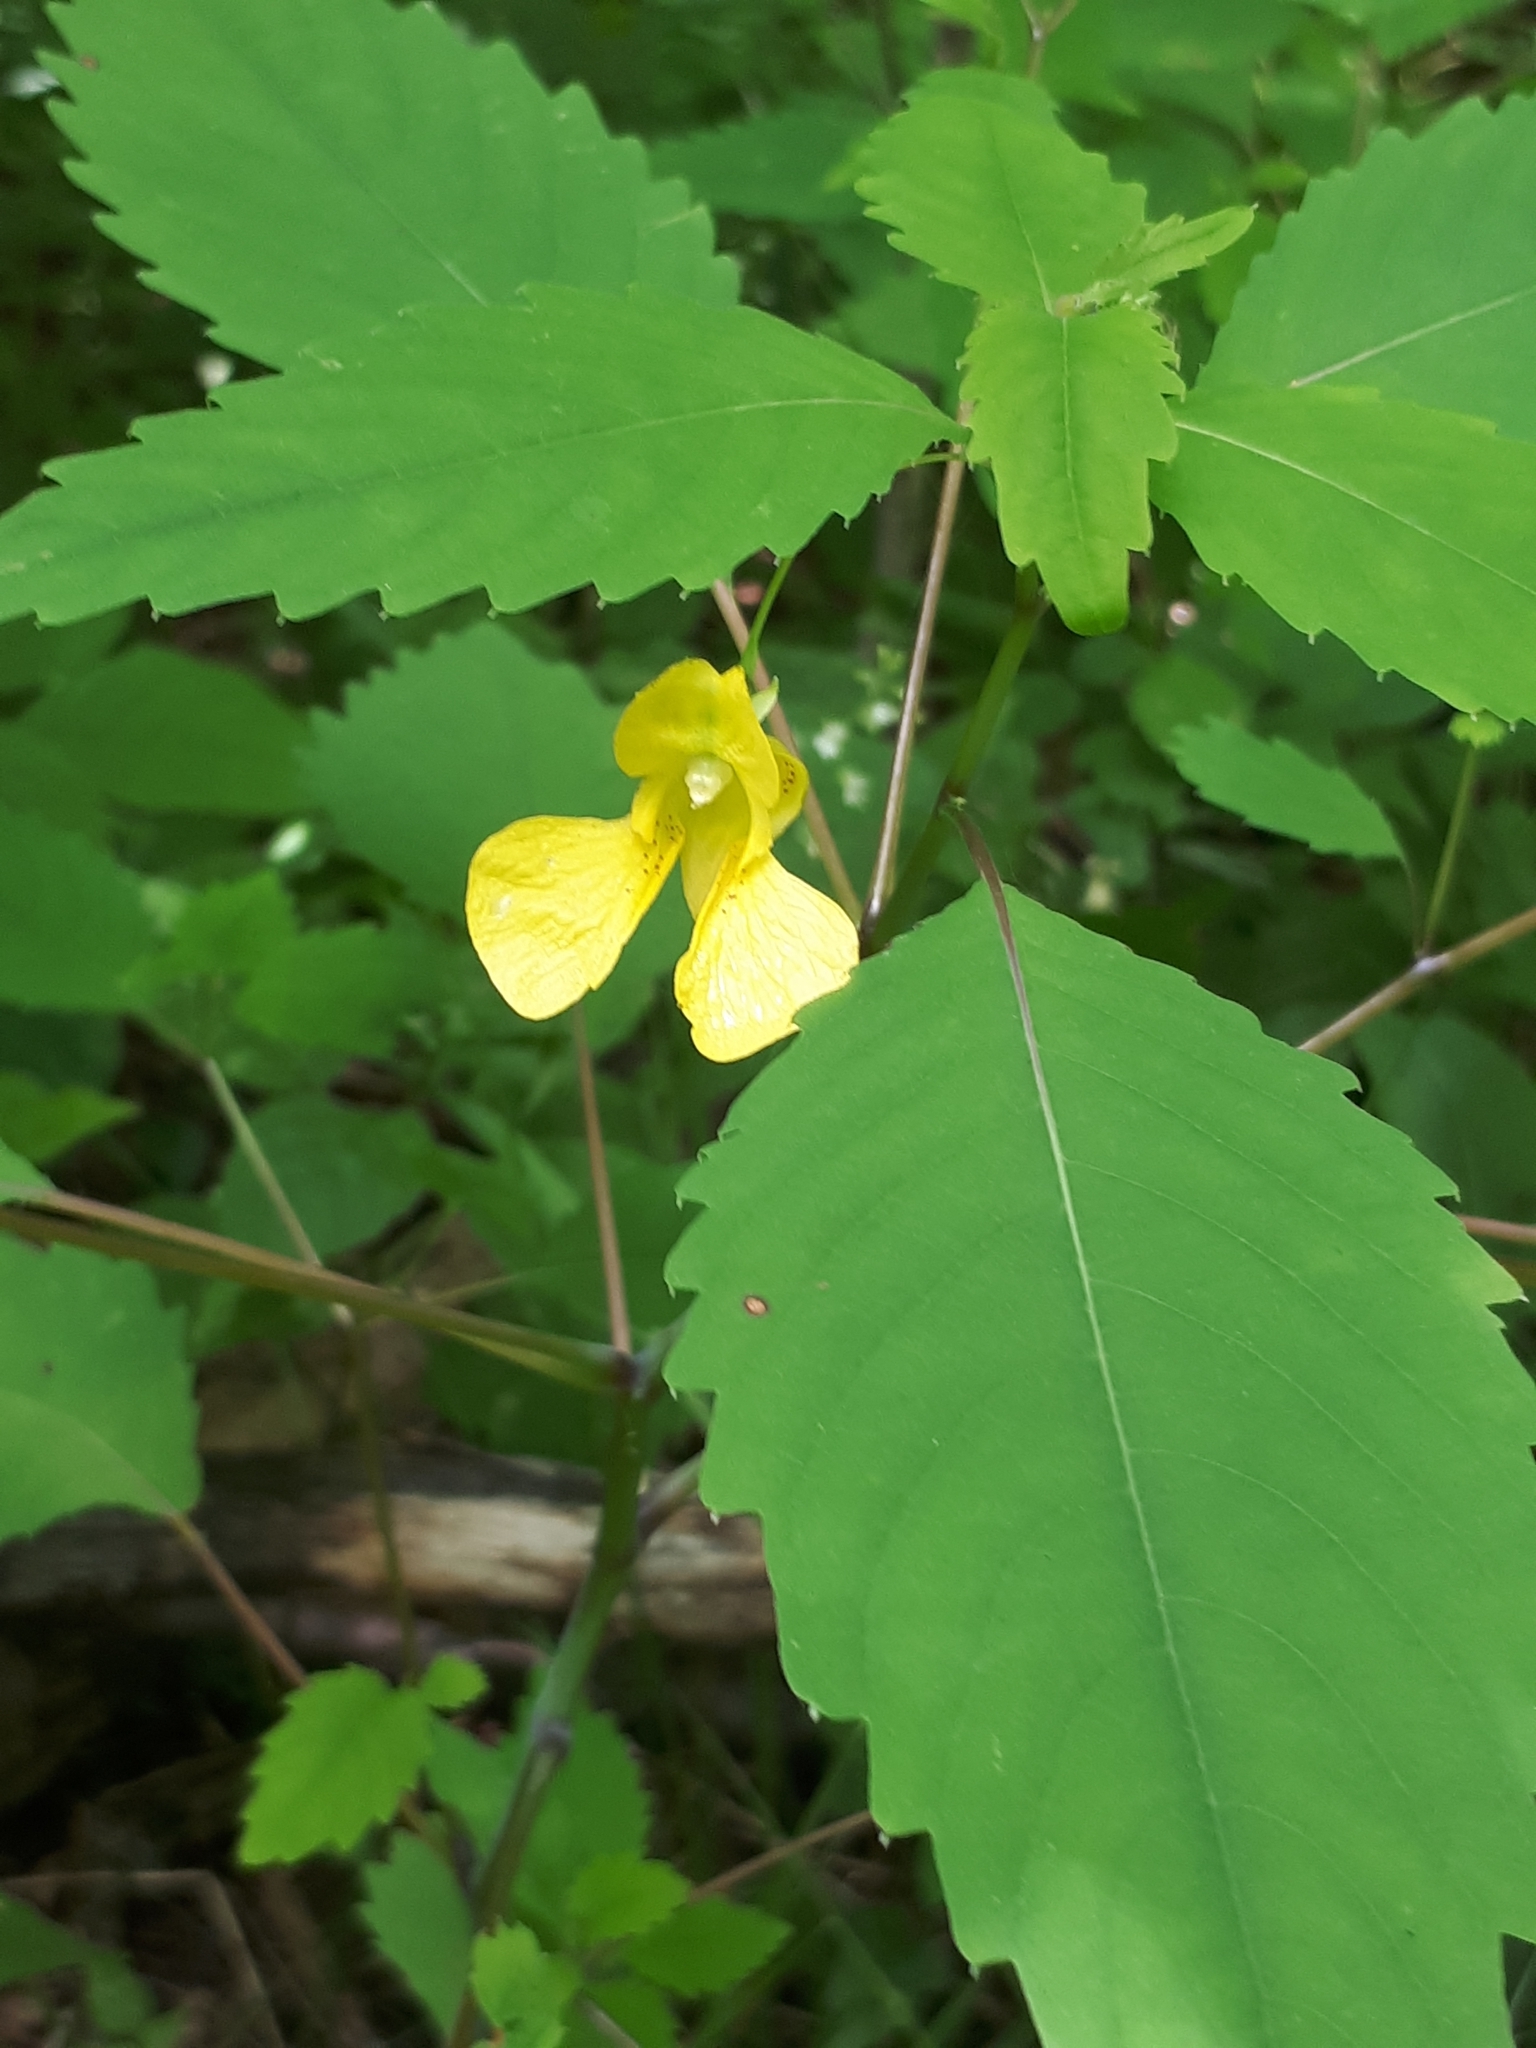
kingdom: Plantae
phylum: Tracheophyta
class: Magnoliopsida
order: Ericales
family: Balsaminaceae
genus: Impatiens
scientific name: Impatiens pallida
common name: Pale snapweed
